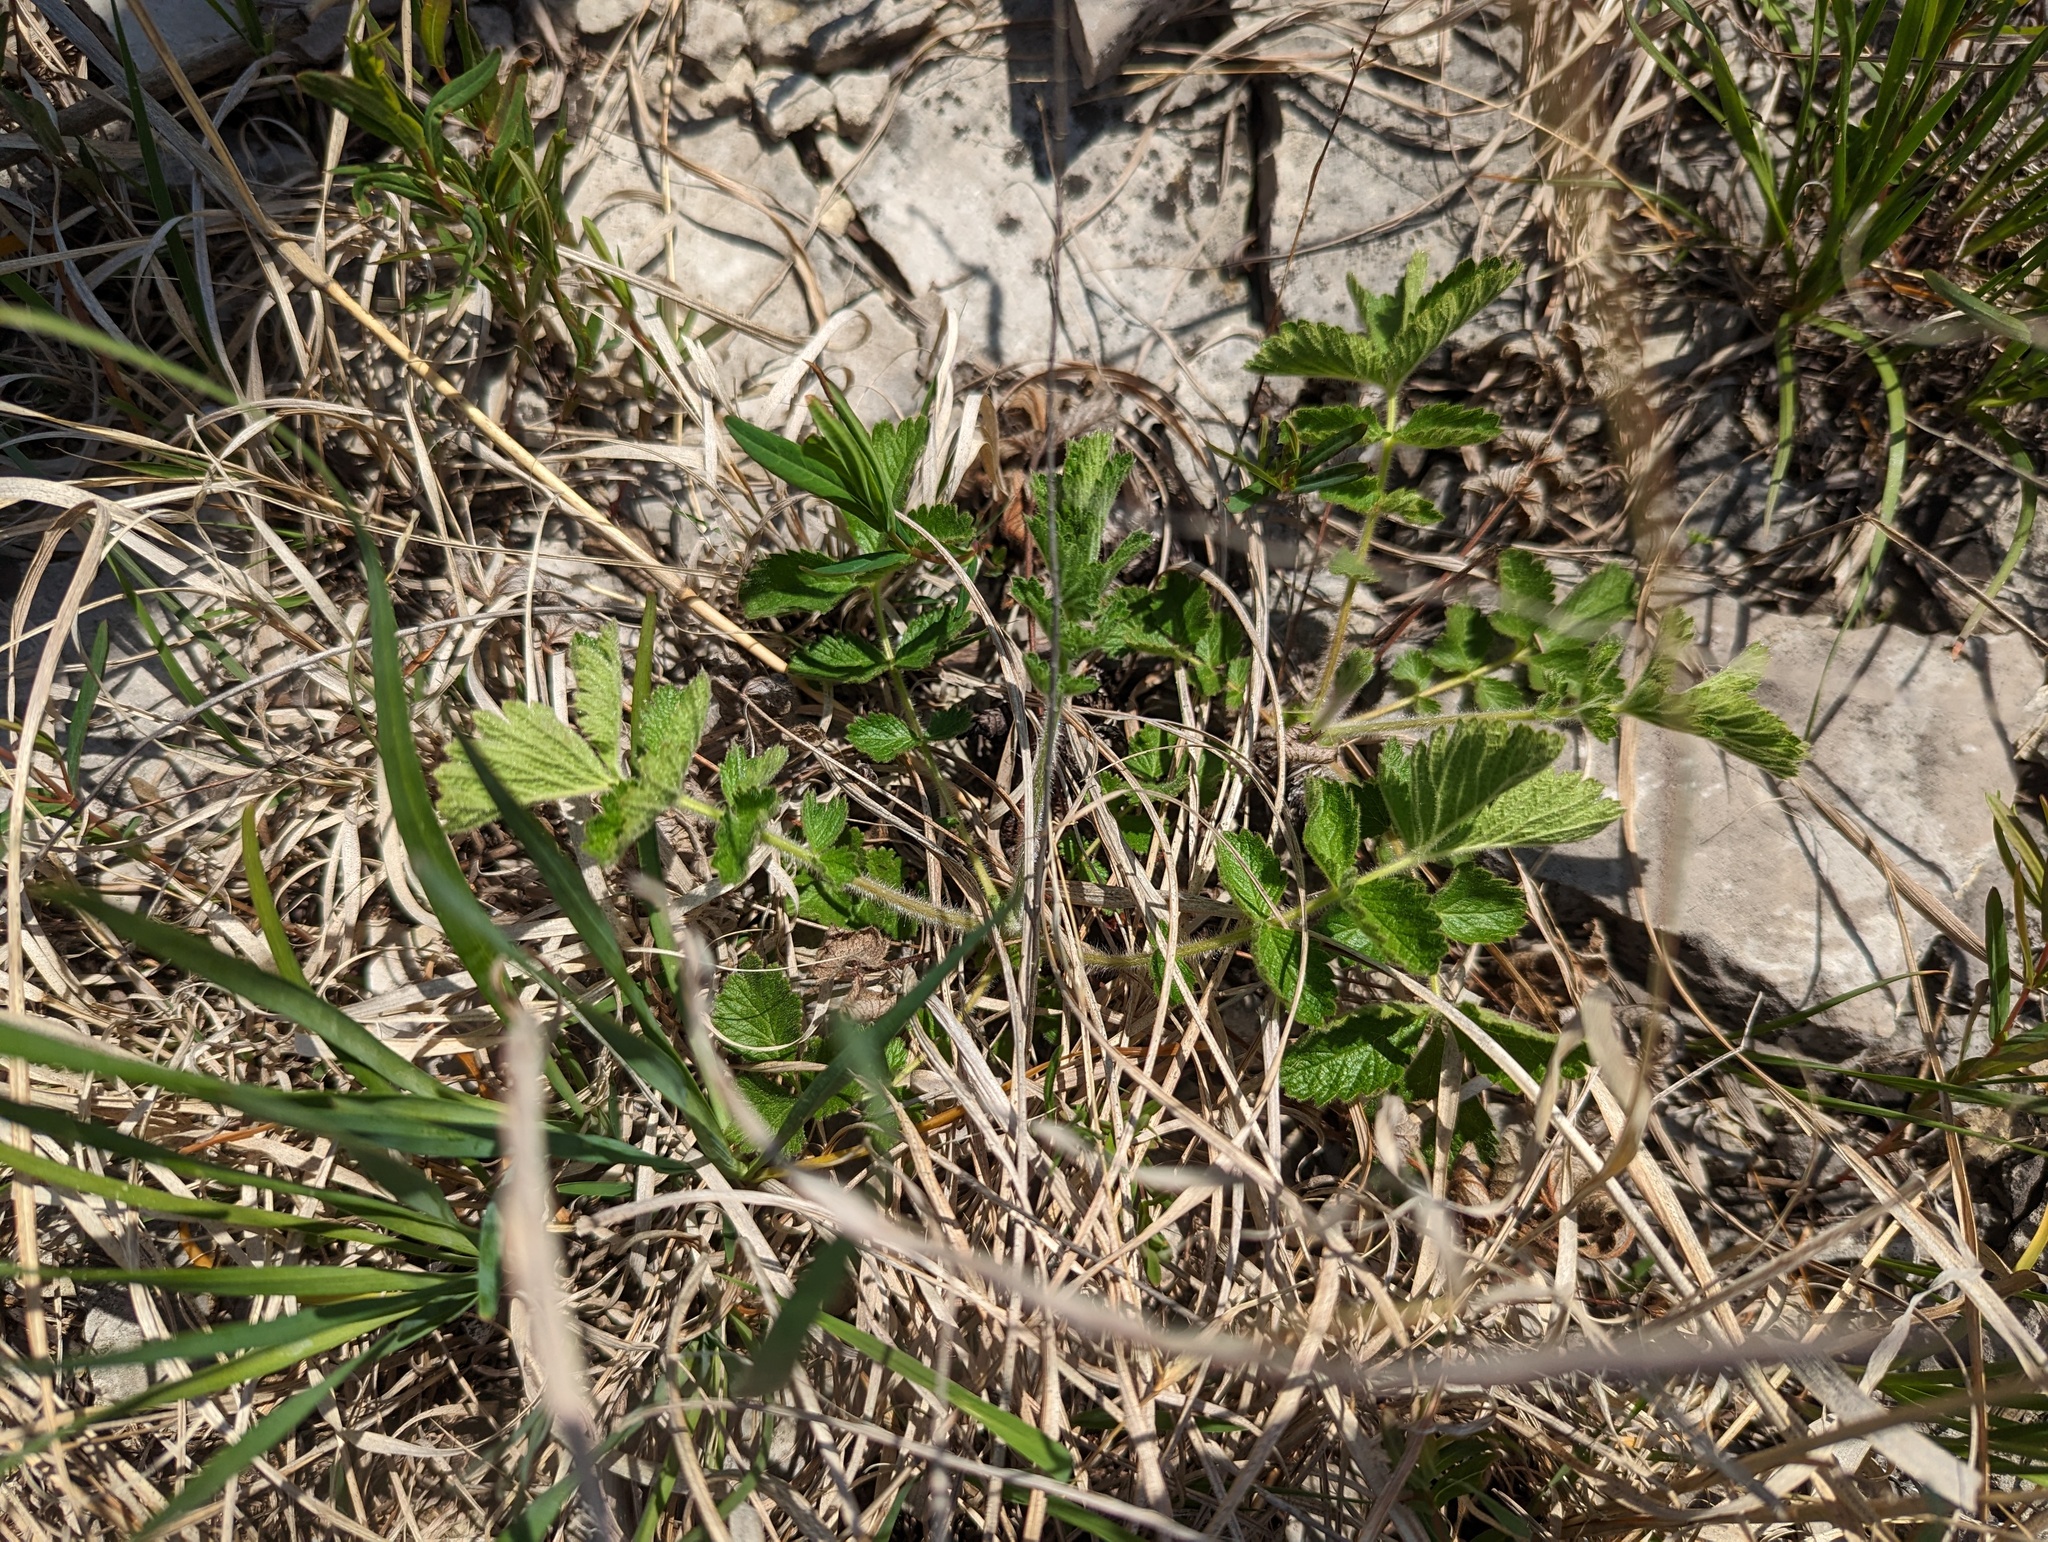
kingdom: Plantae
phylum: Tracheophyta
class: Magnoliopsida
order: Rosales
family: Rosaceae
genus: Drymocallis
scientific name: Drymocallis arguta
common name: Tall cinquefoil
